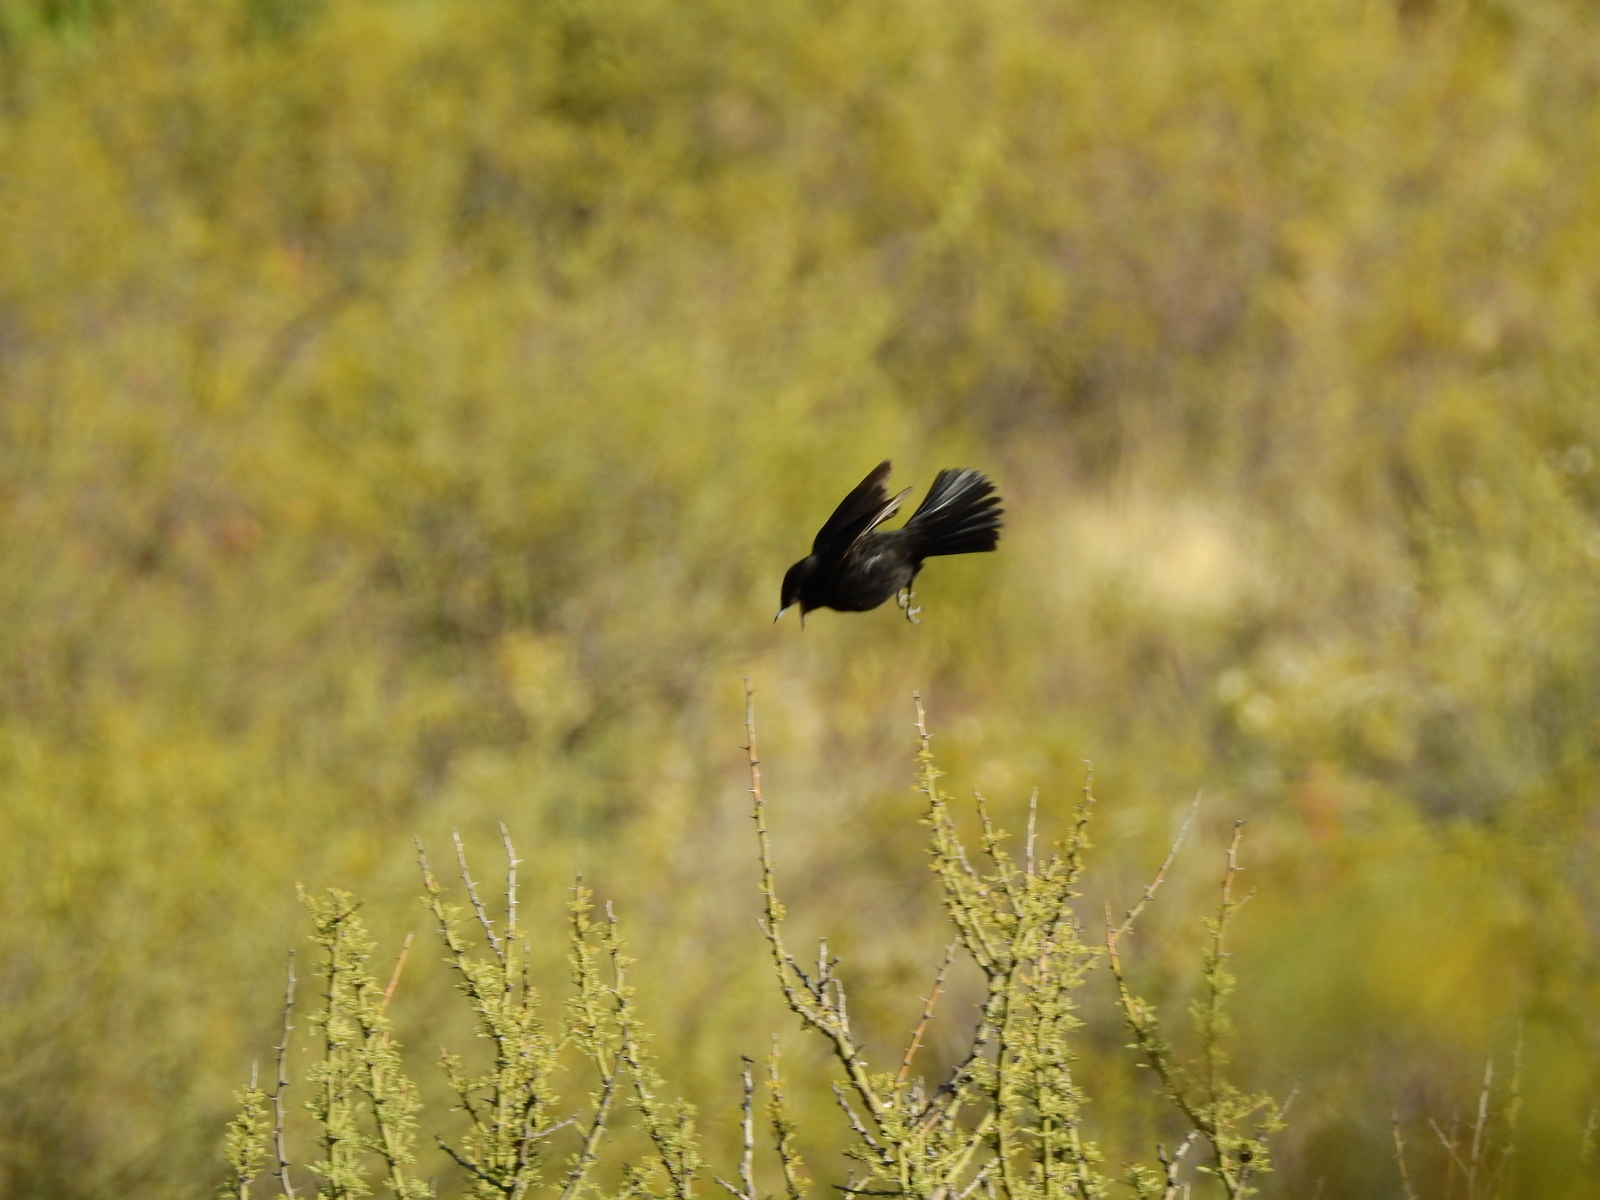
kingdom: Animalia
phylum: Chordata
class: Aves
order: Passeriformes
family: Tyrannidae
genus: Knipolegus
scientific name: Knipolegus hudsoni
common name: Hudson's black tyrant
